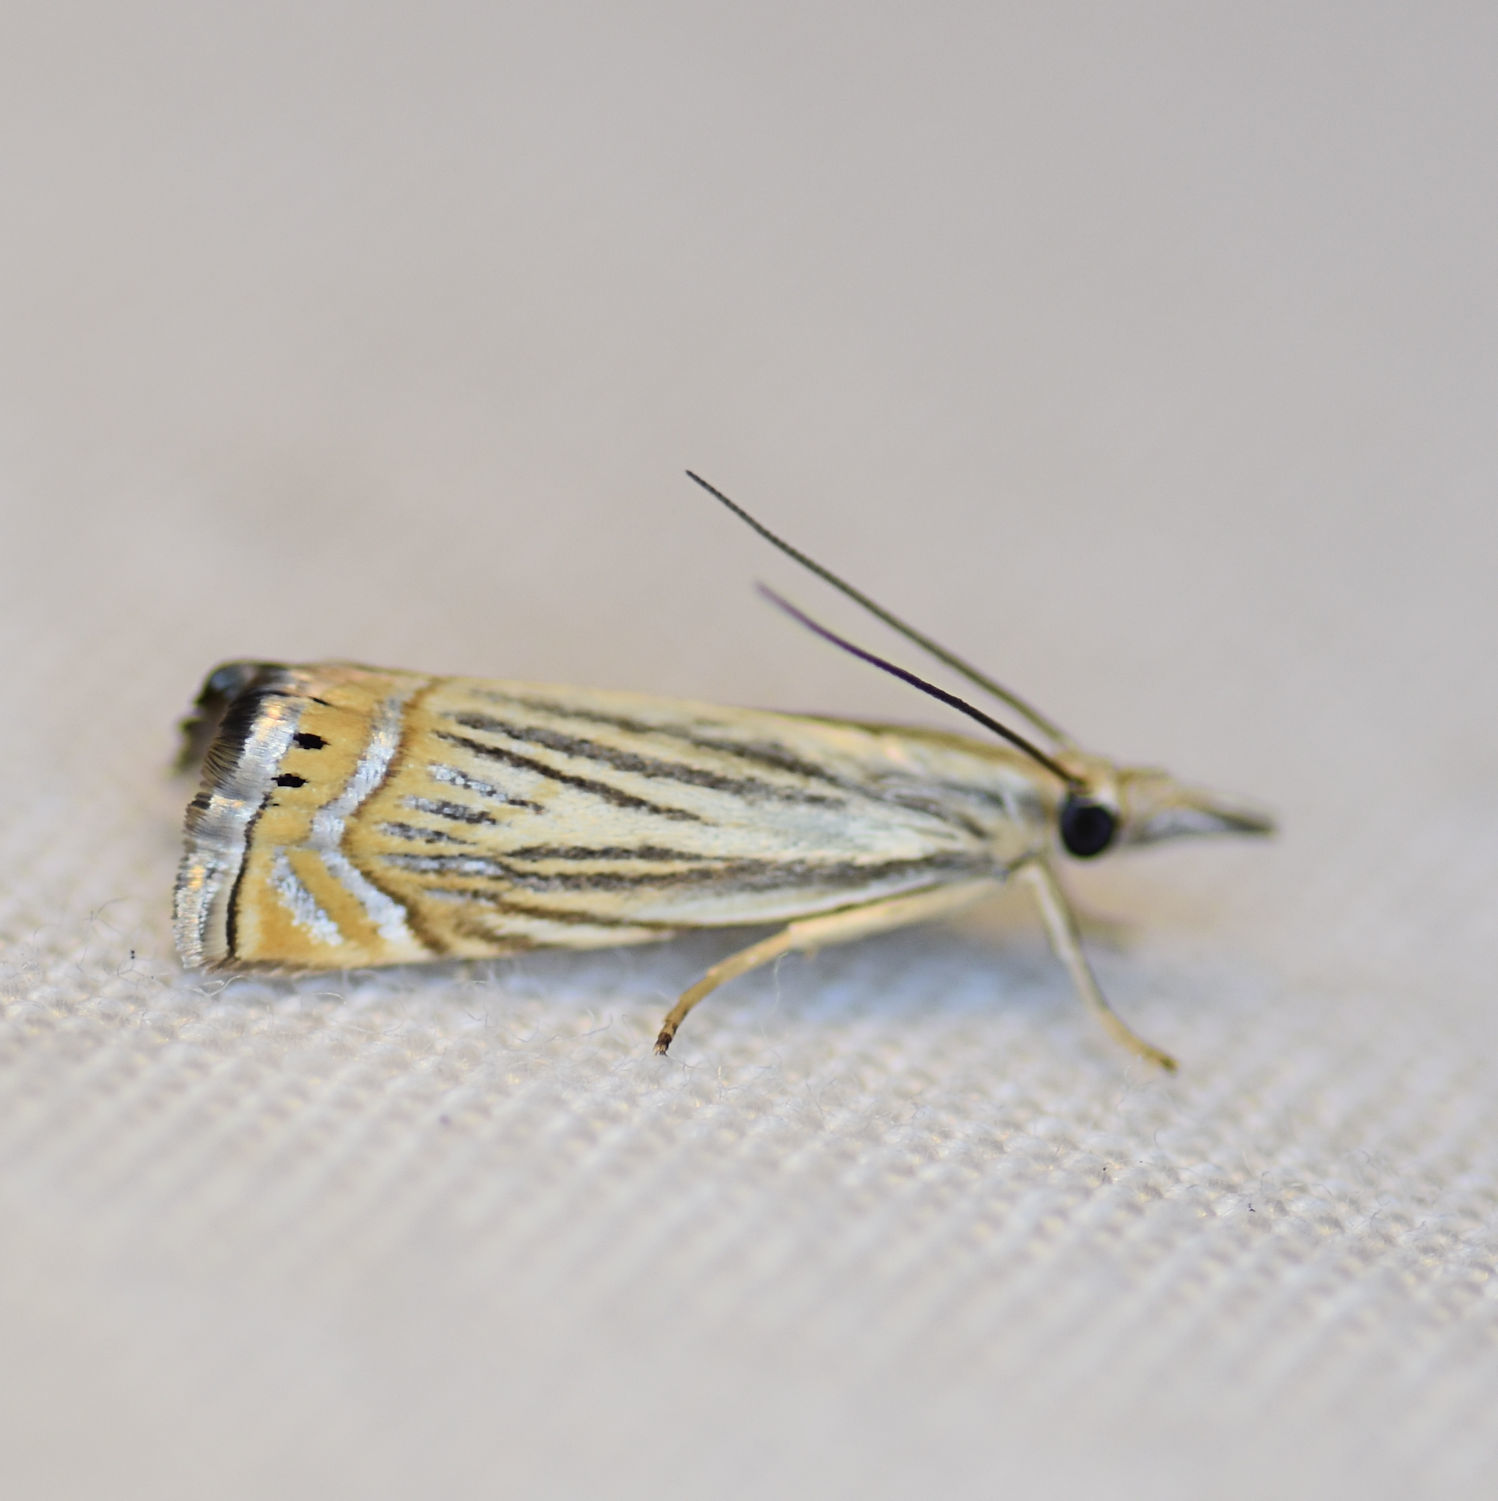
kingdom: Animalia
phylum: Arthropoda
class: Insecta
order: Lepidoptera
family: Crambidae
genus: Chrysoteuchia
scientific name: Chrysoteuchia topiarius
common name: Topiary grass-veneer
